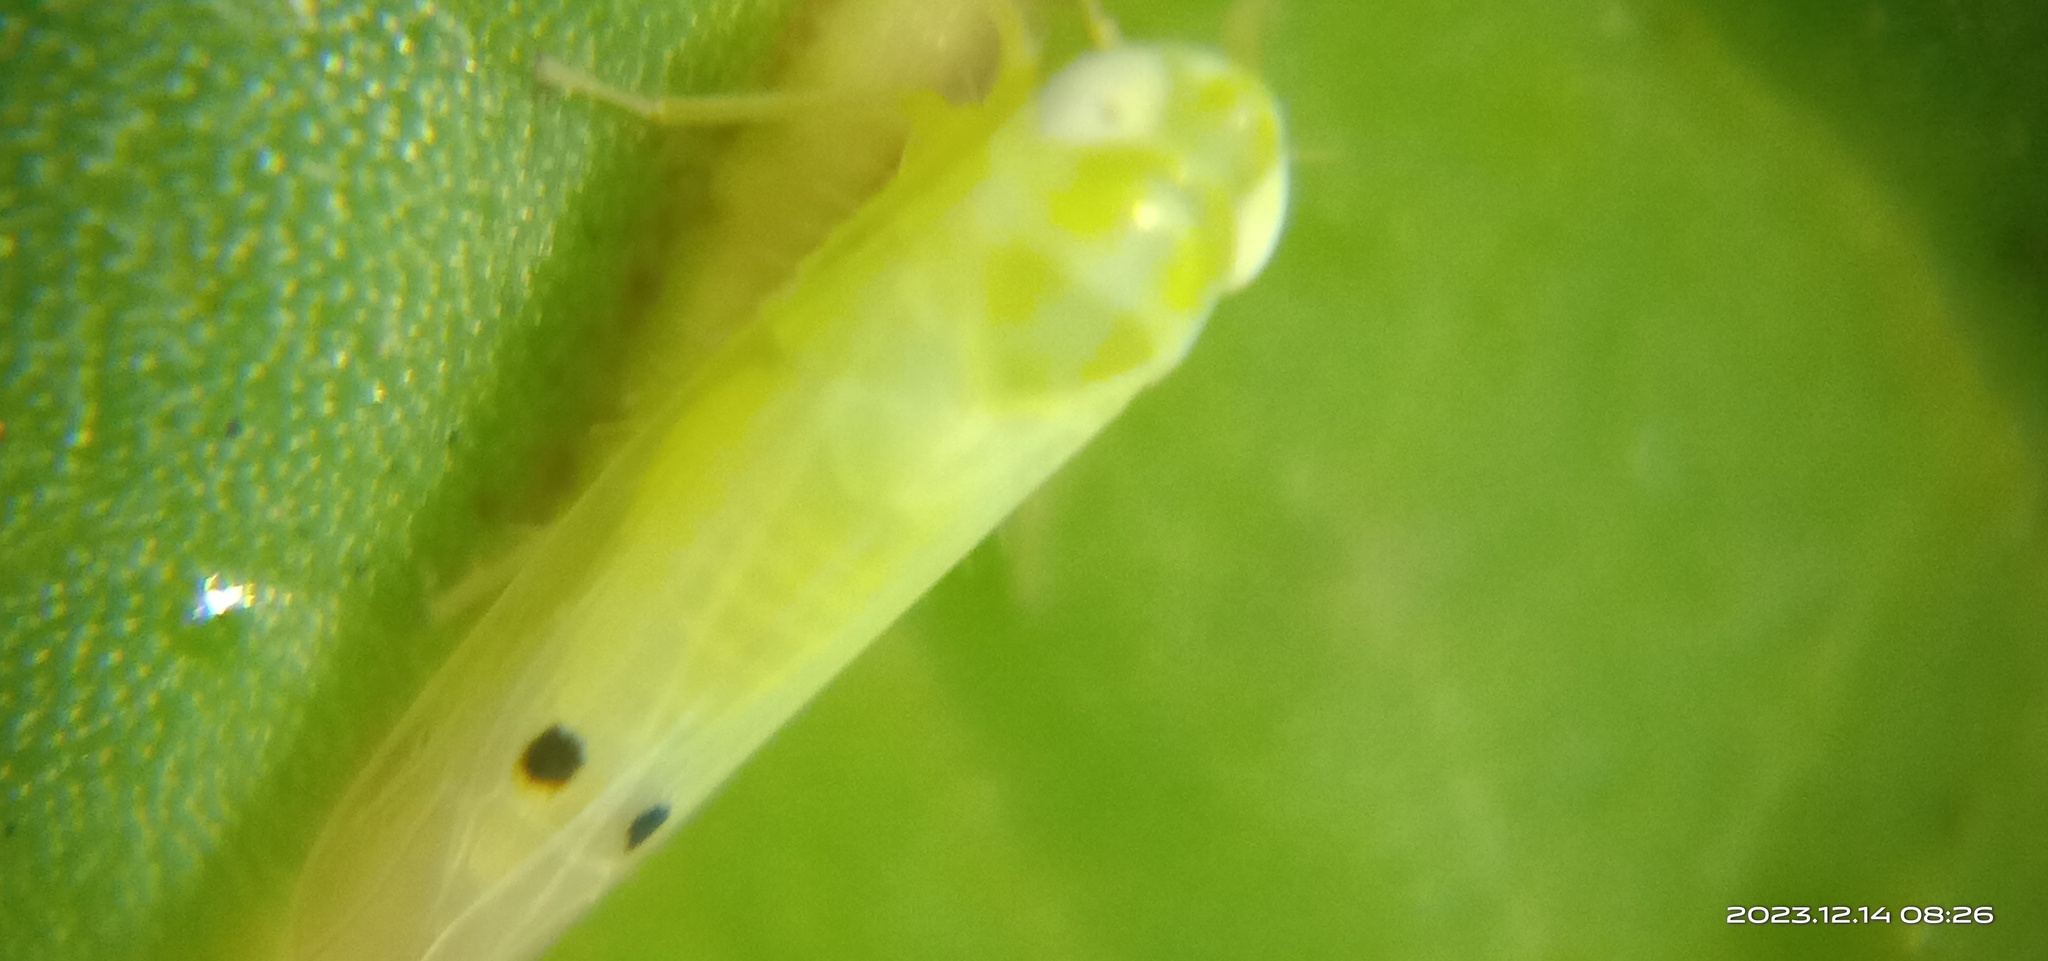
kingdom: Animalia
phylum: Arthropoda
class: Insecta
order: Hemiptera
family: Cicadellidae
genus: Amrasca
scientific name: Amrasca biguttula
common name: Indian cotton jassid
